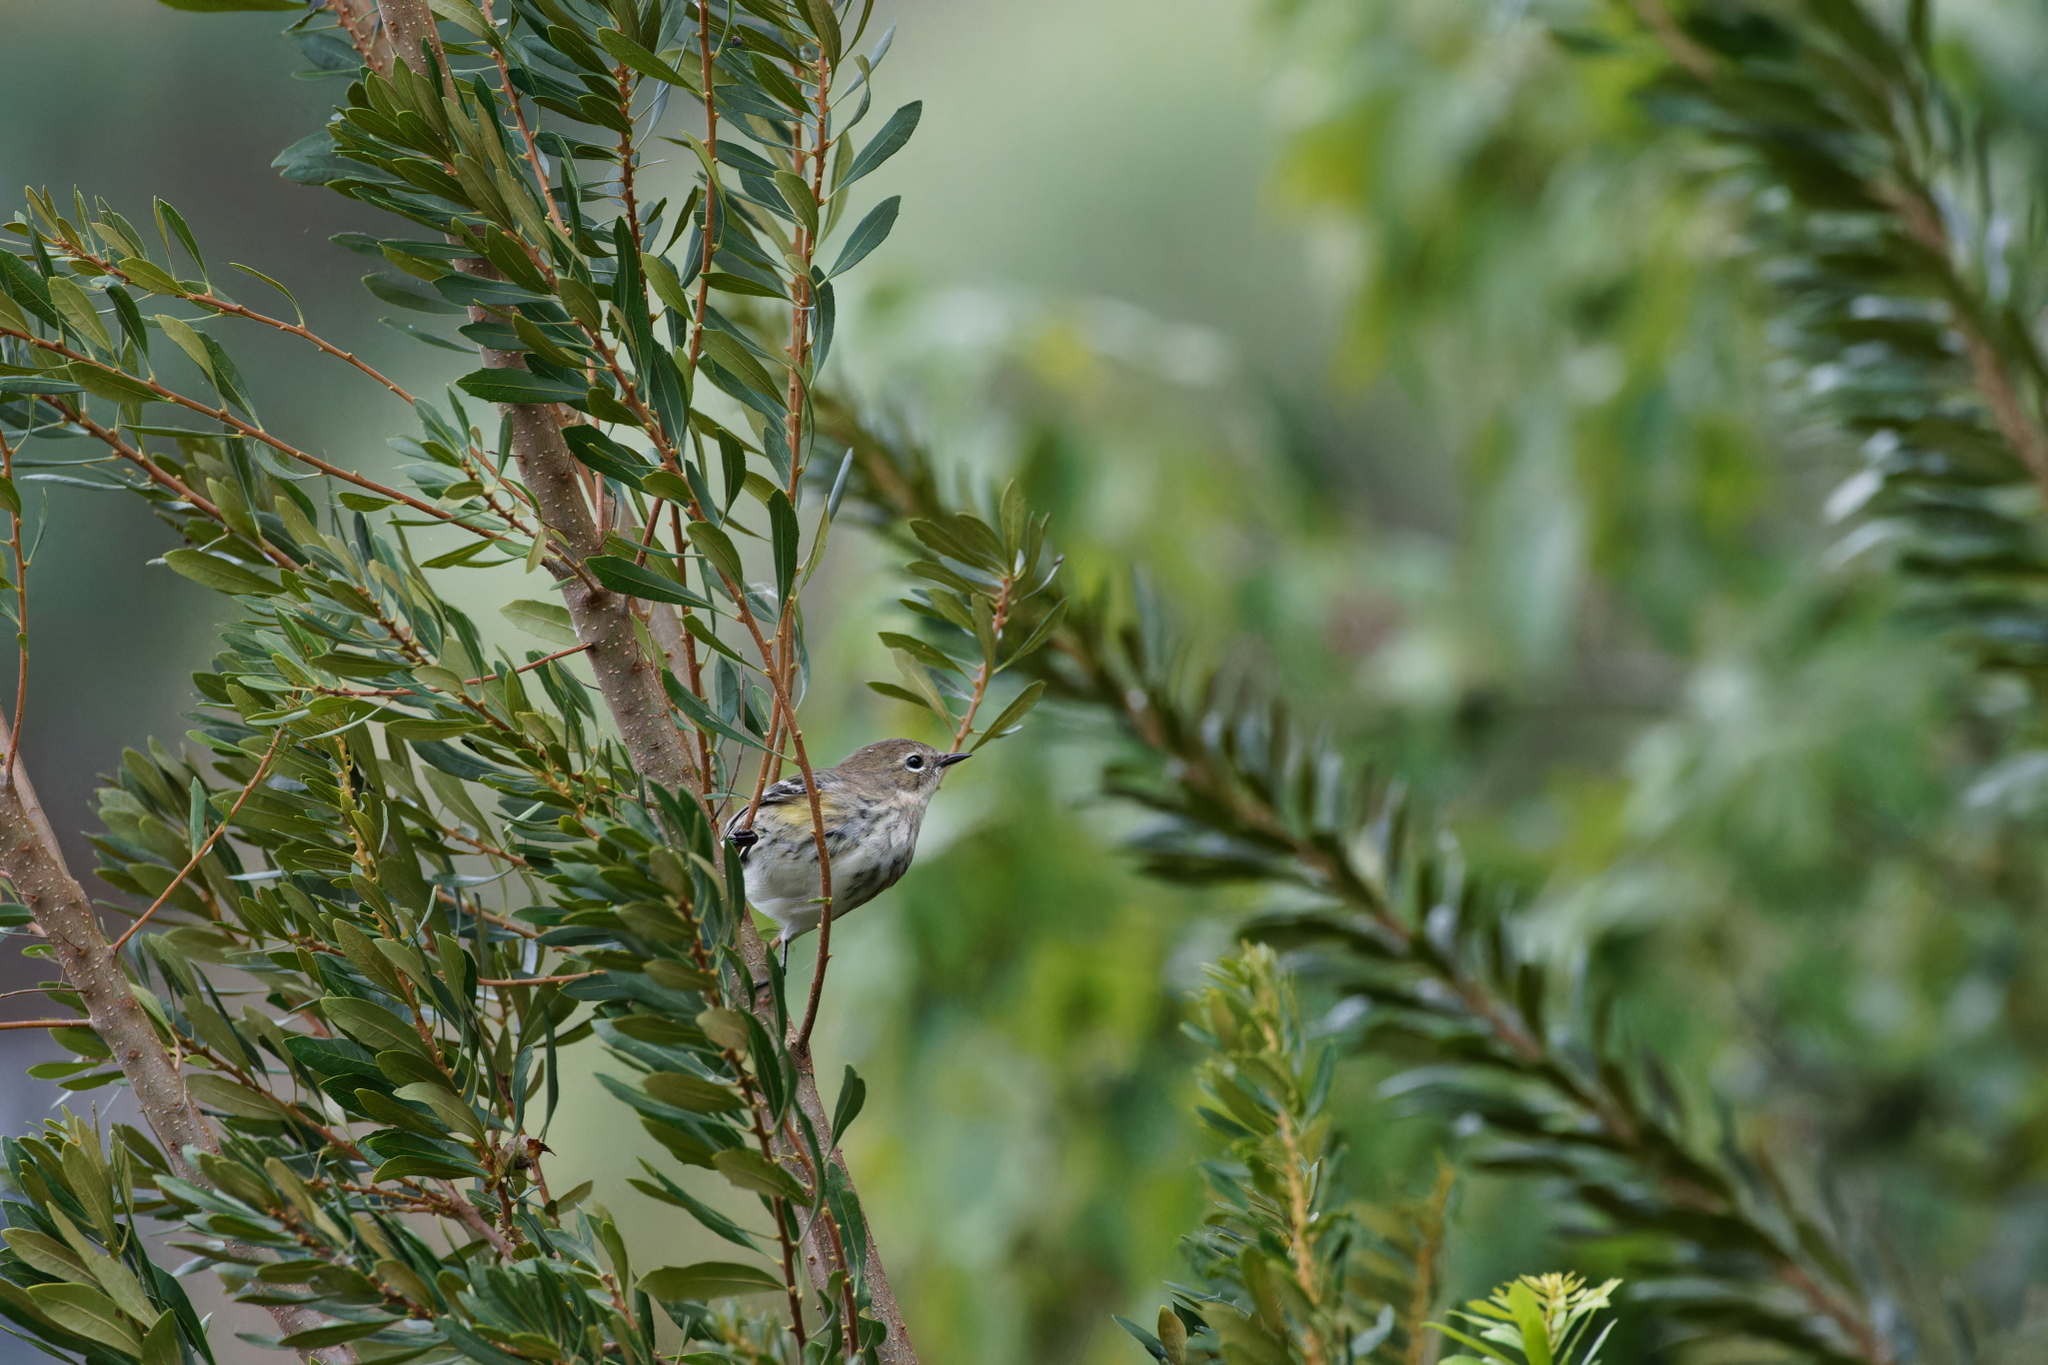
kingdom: Animalia
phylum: Chordata
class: Aves
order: Passeriformes
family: Parulidae
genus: Setophaga
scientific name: Setophaga coronata
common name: Myrtle warbler
